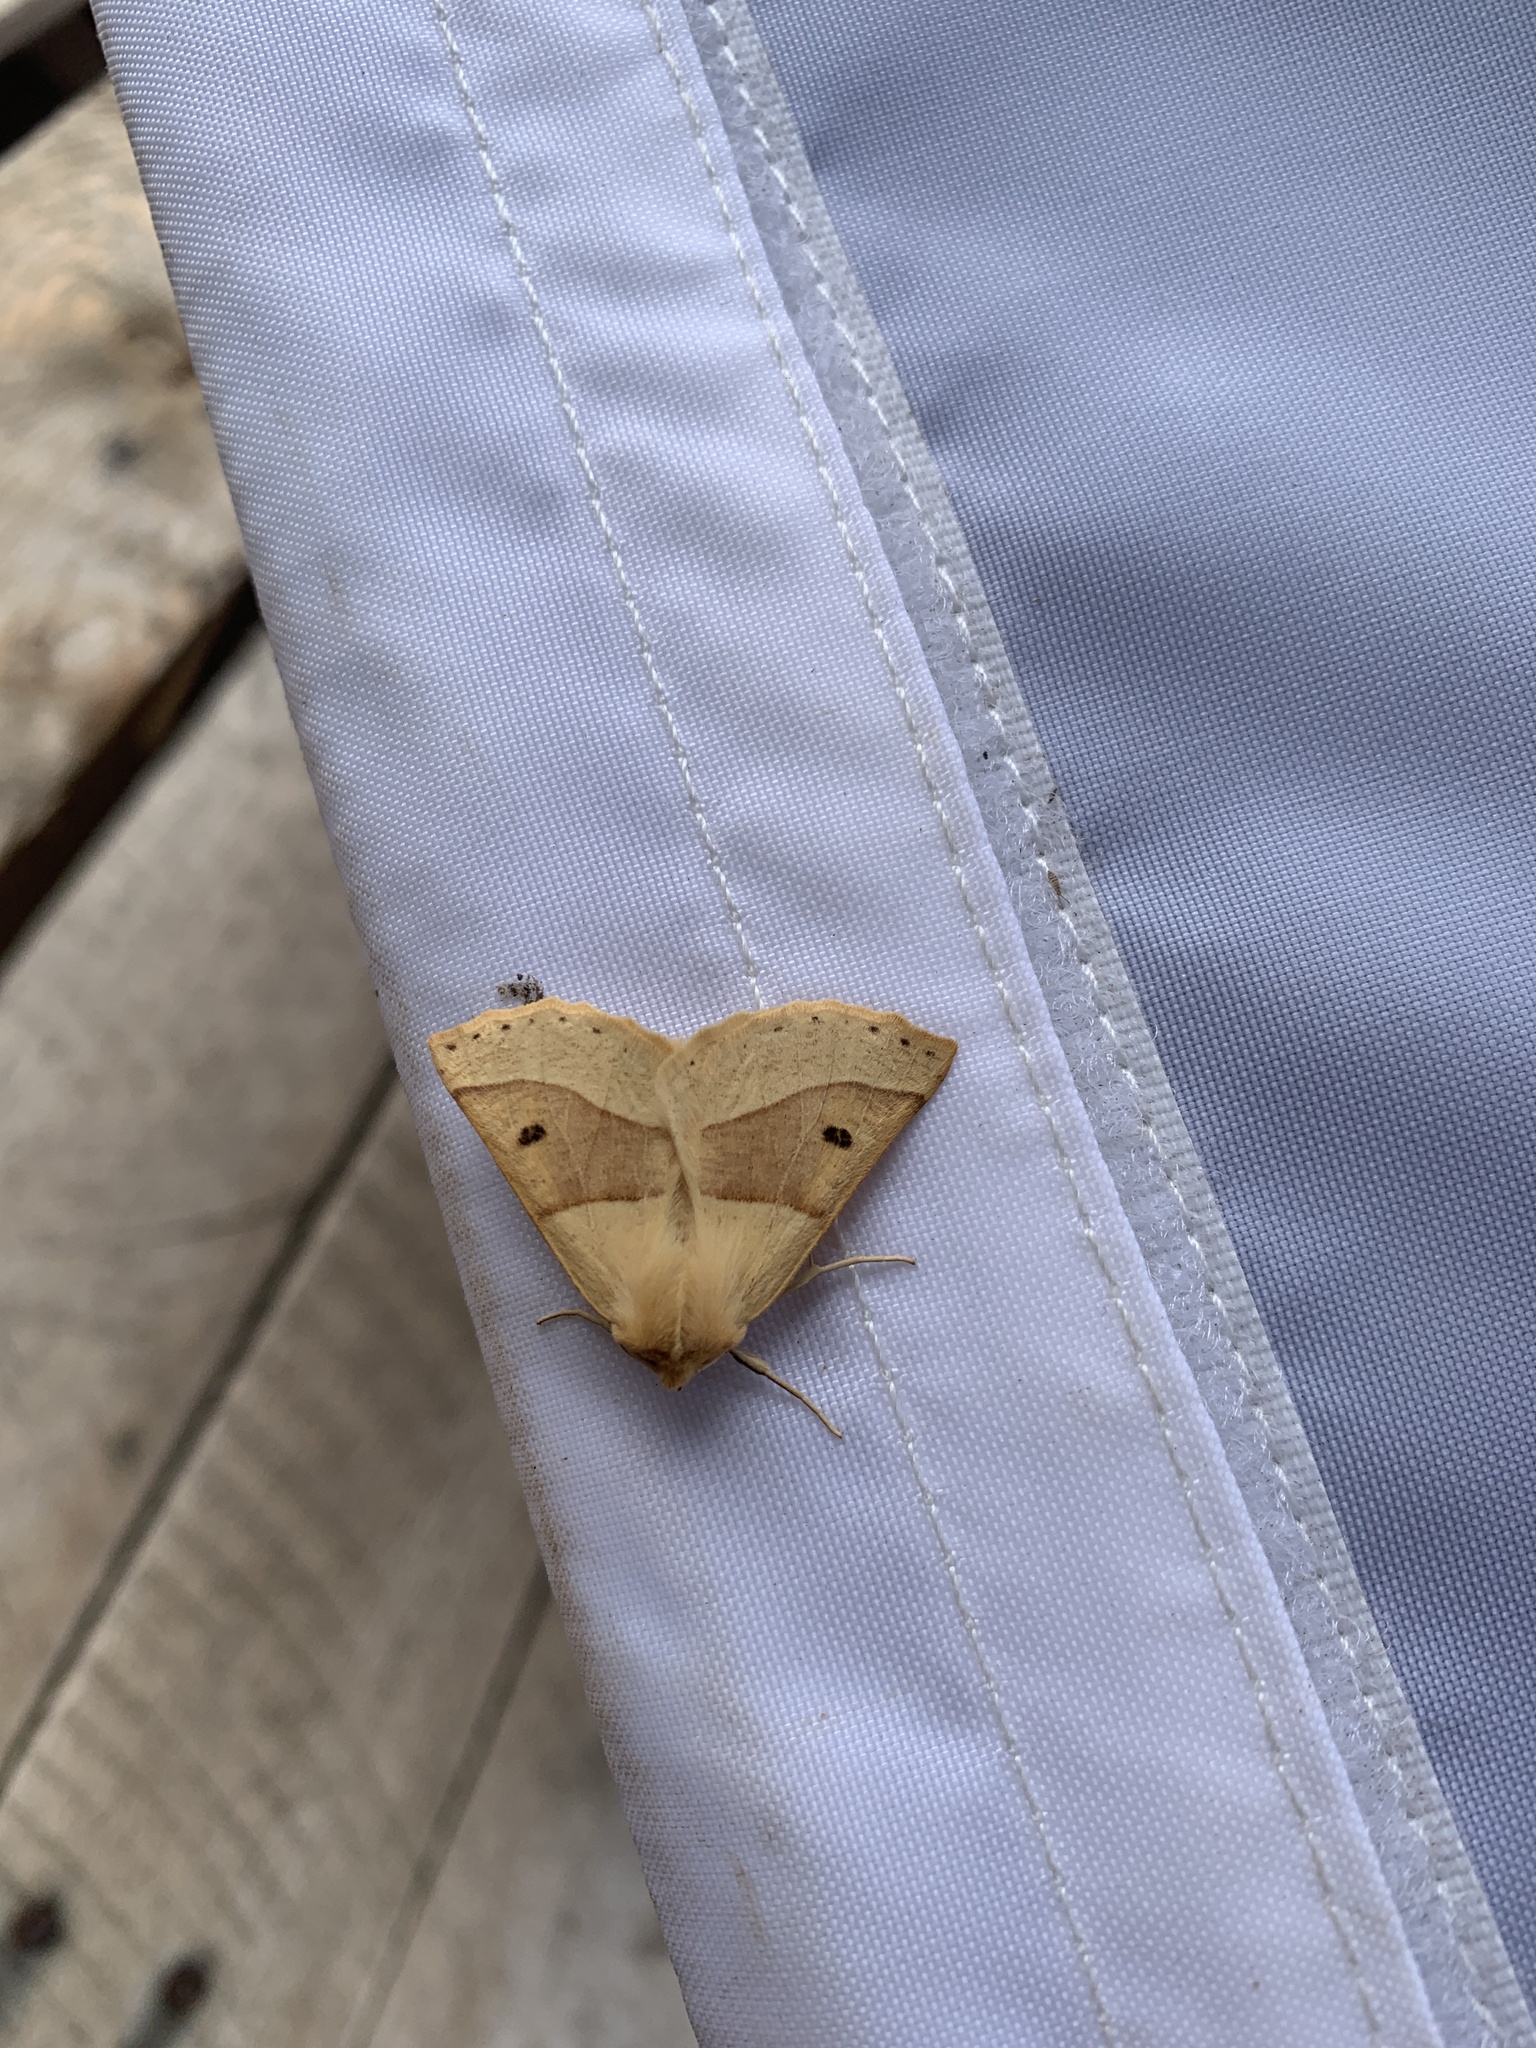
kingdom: Animalia
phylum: Arthropoda
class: Insecta
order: Lepidoptera
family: Geometridae
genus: Crocallis
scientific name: Crocallis elinguaria
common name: Scalloped oak
